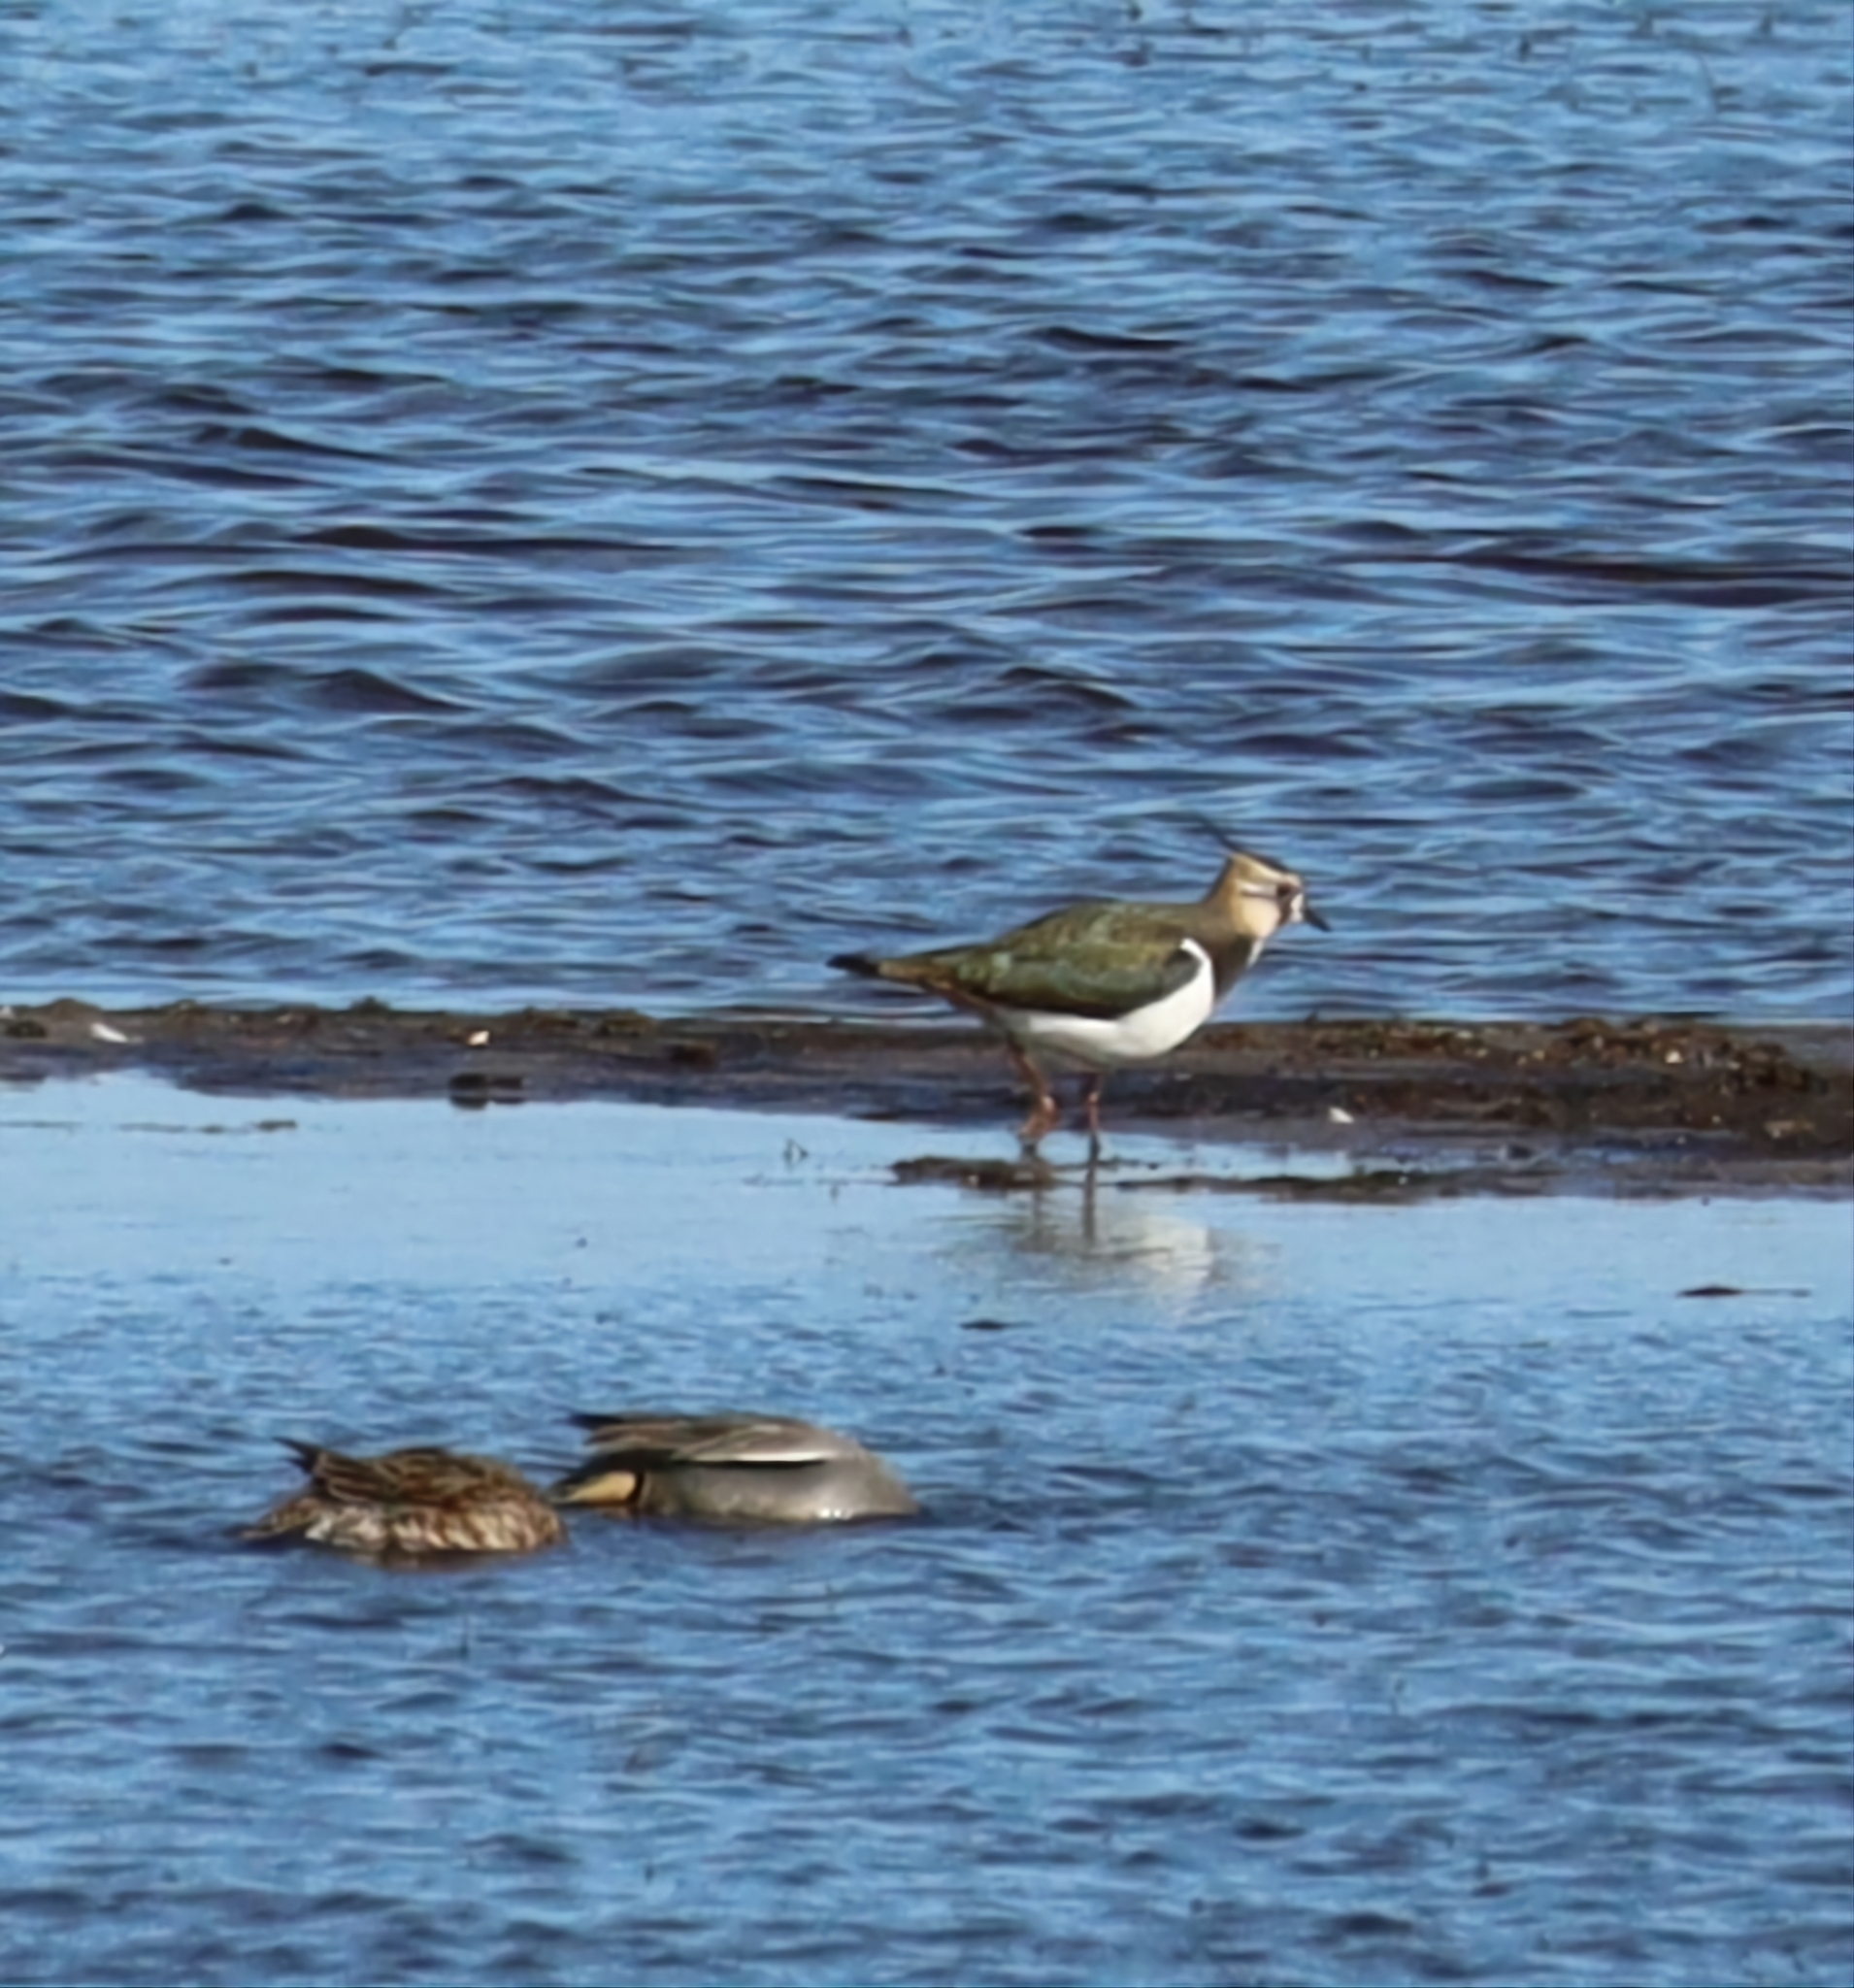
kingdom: Animalia
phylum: Chordata
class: Aves
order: Charadriiformes
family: Charadriidae
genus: Vanellus
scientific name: Vanellus vanellus
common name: Northern lapwing
